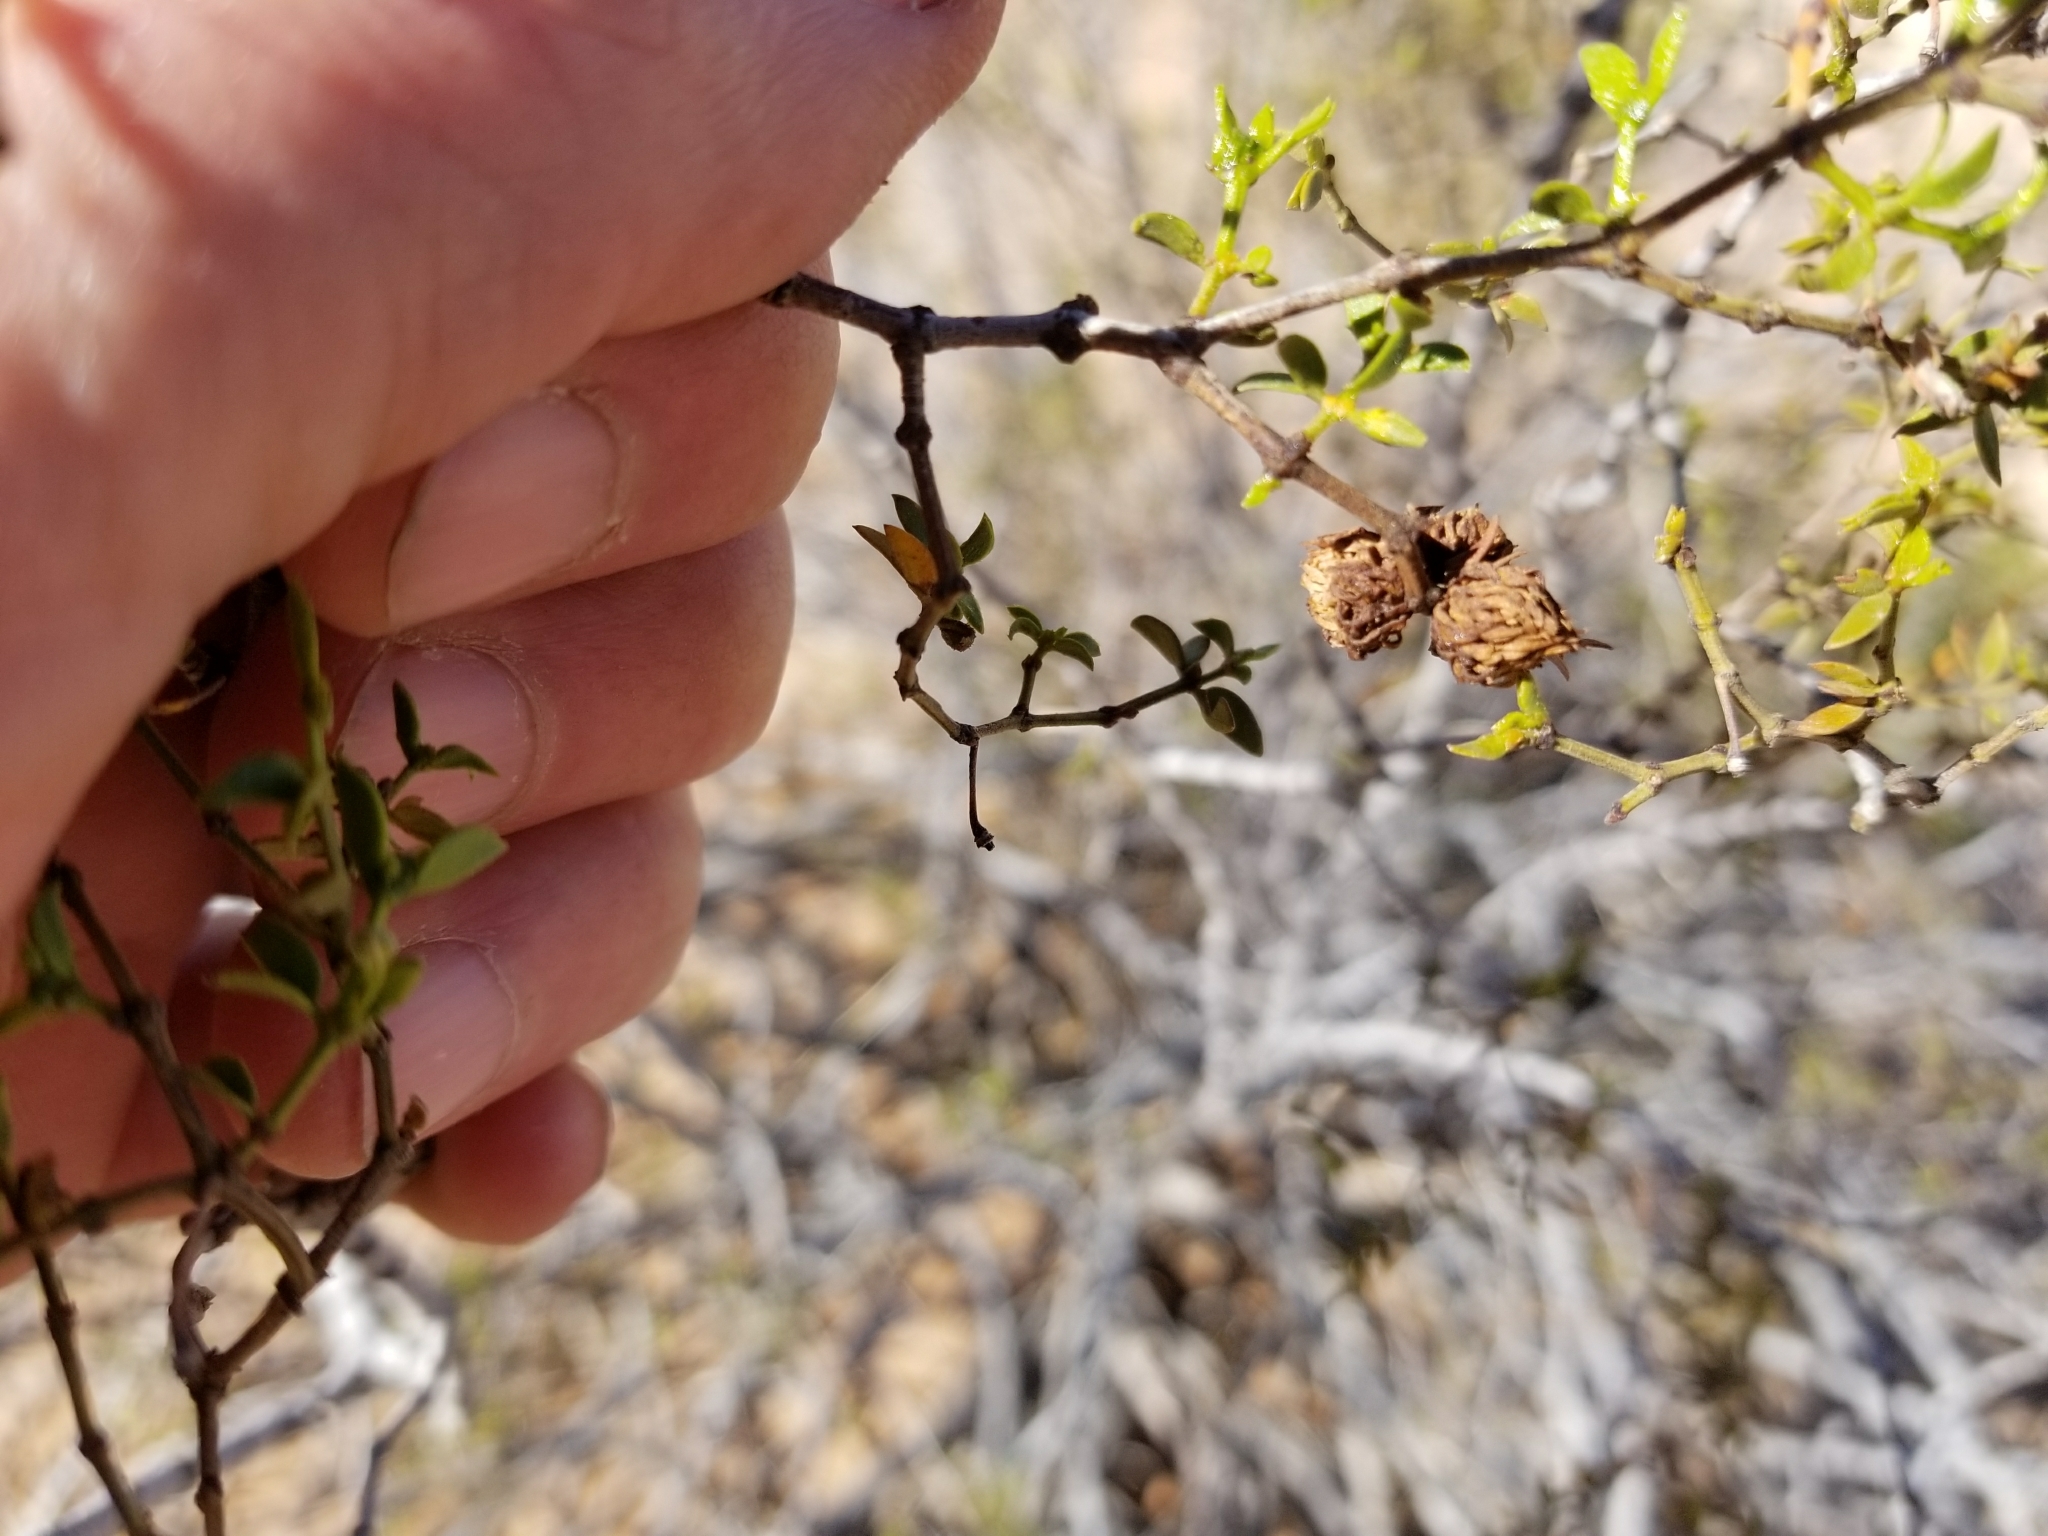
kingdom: Animalia
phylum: Arthropoda
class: Insecta
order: Diptera
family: Cecidomyiidae
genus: Asphondylia
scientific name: Asphondylia foliosa
